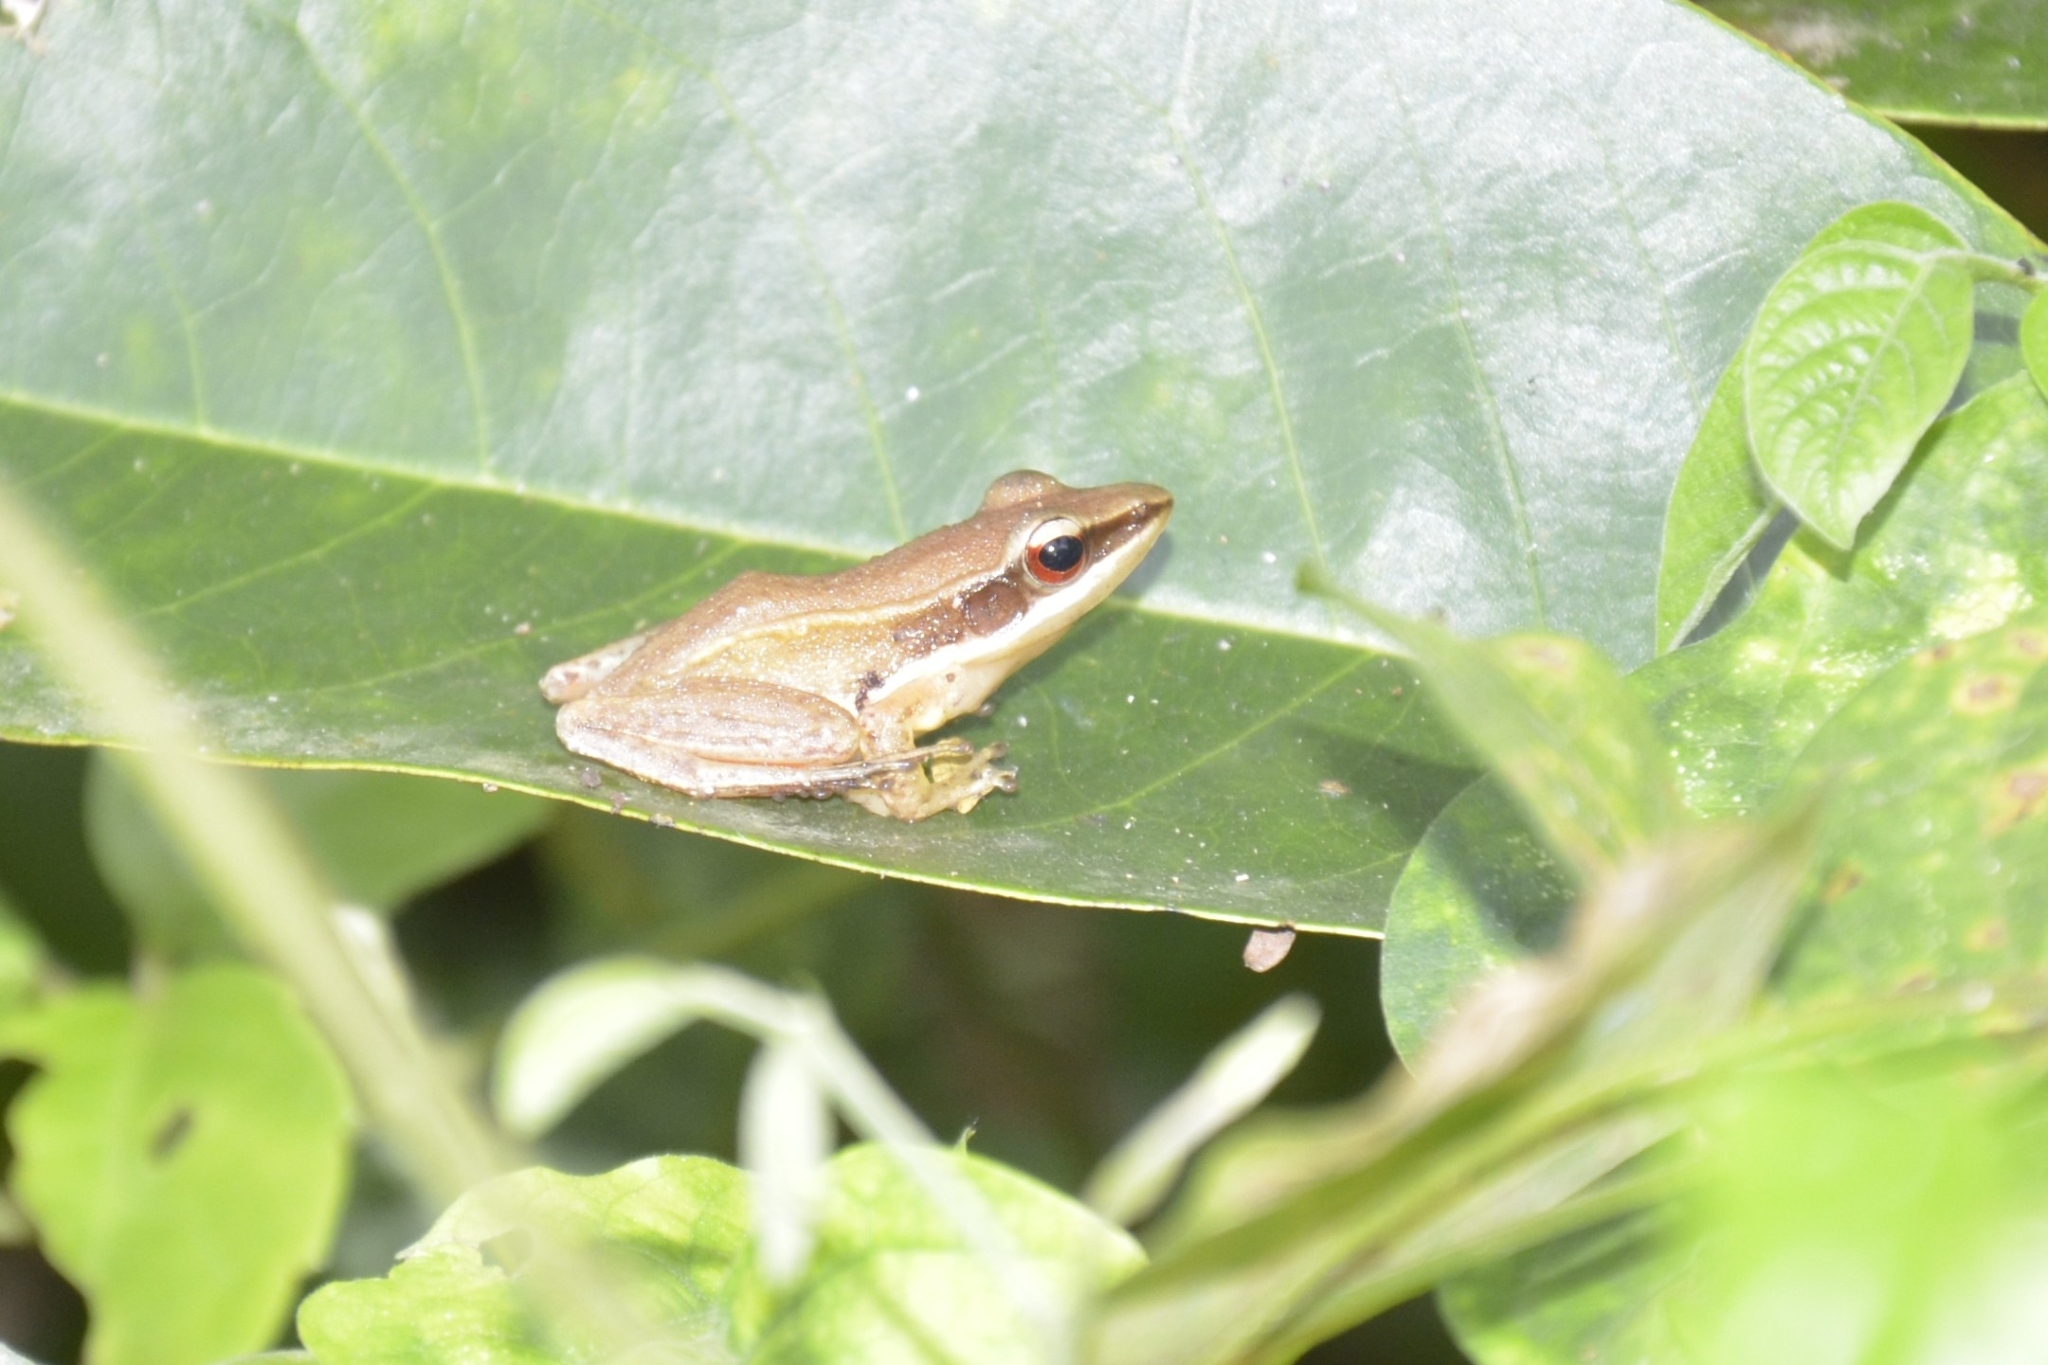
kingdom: Animalia
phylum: Chordata
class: Amphibia
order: Anura
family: Ranidae
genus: Indosylvirana
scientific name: Indosylvirana urbis
